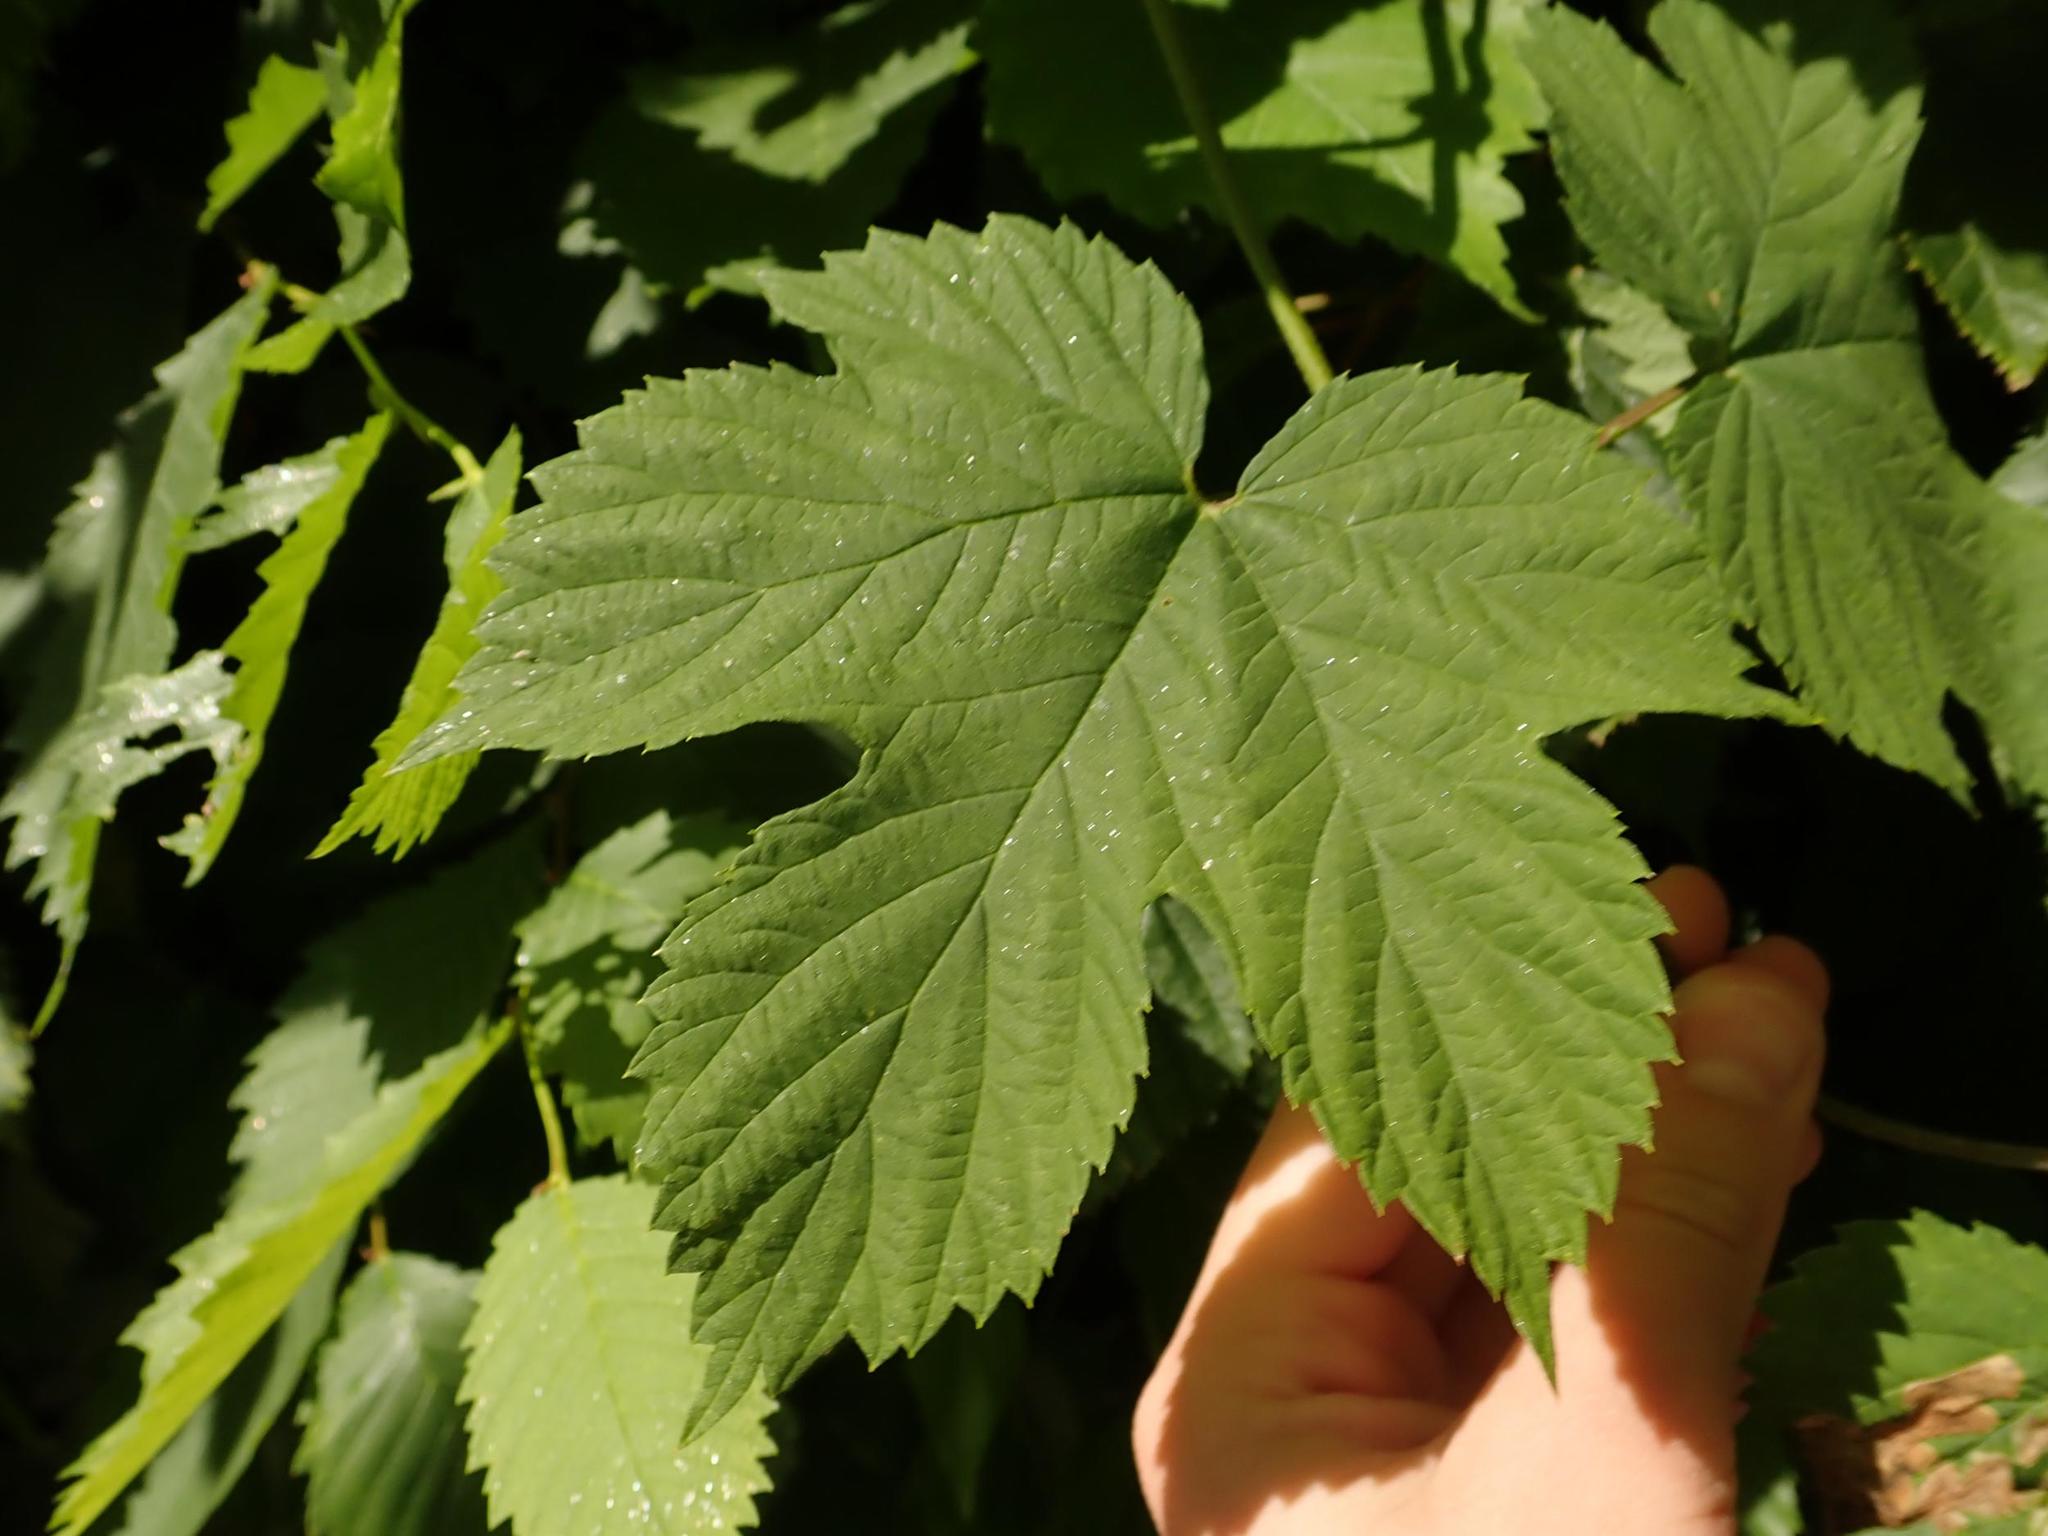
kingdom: Plantae
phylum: Tracheophyta
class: Magnoliopsida
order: Rosales
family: Cannabaceae
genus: Humulus
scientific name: Humulus lupulus
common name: Hop
